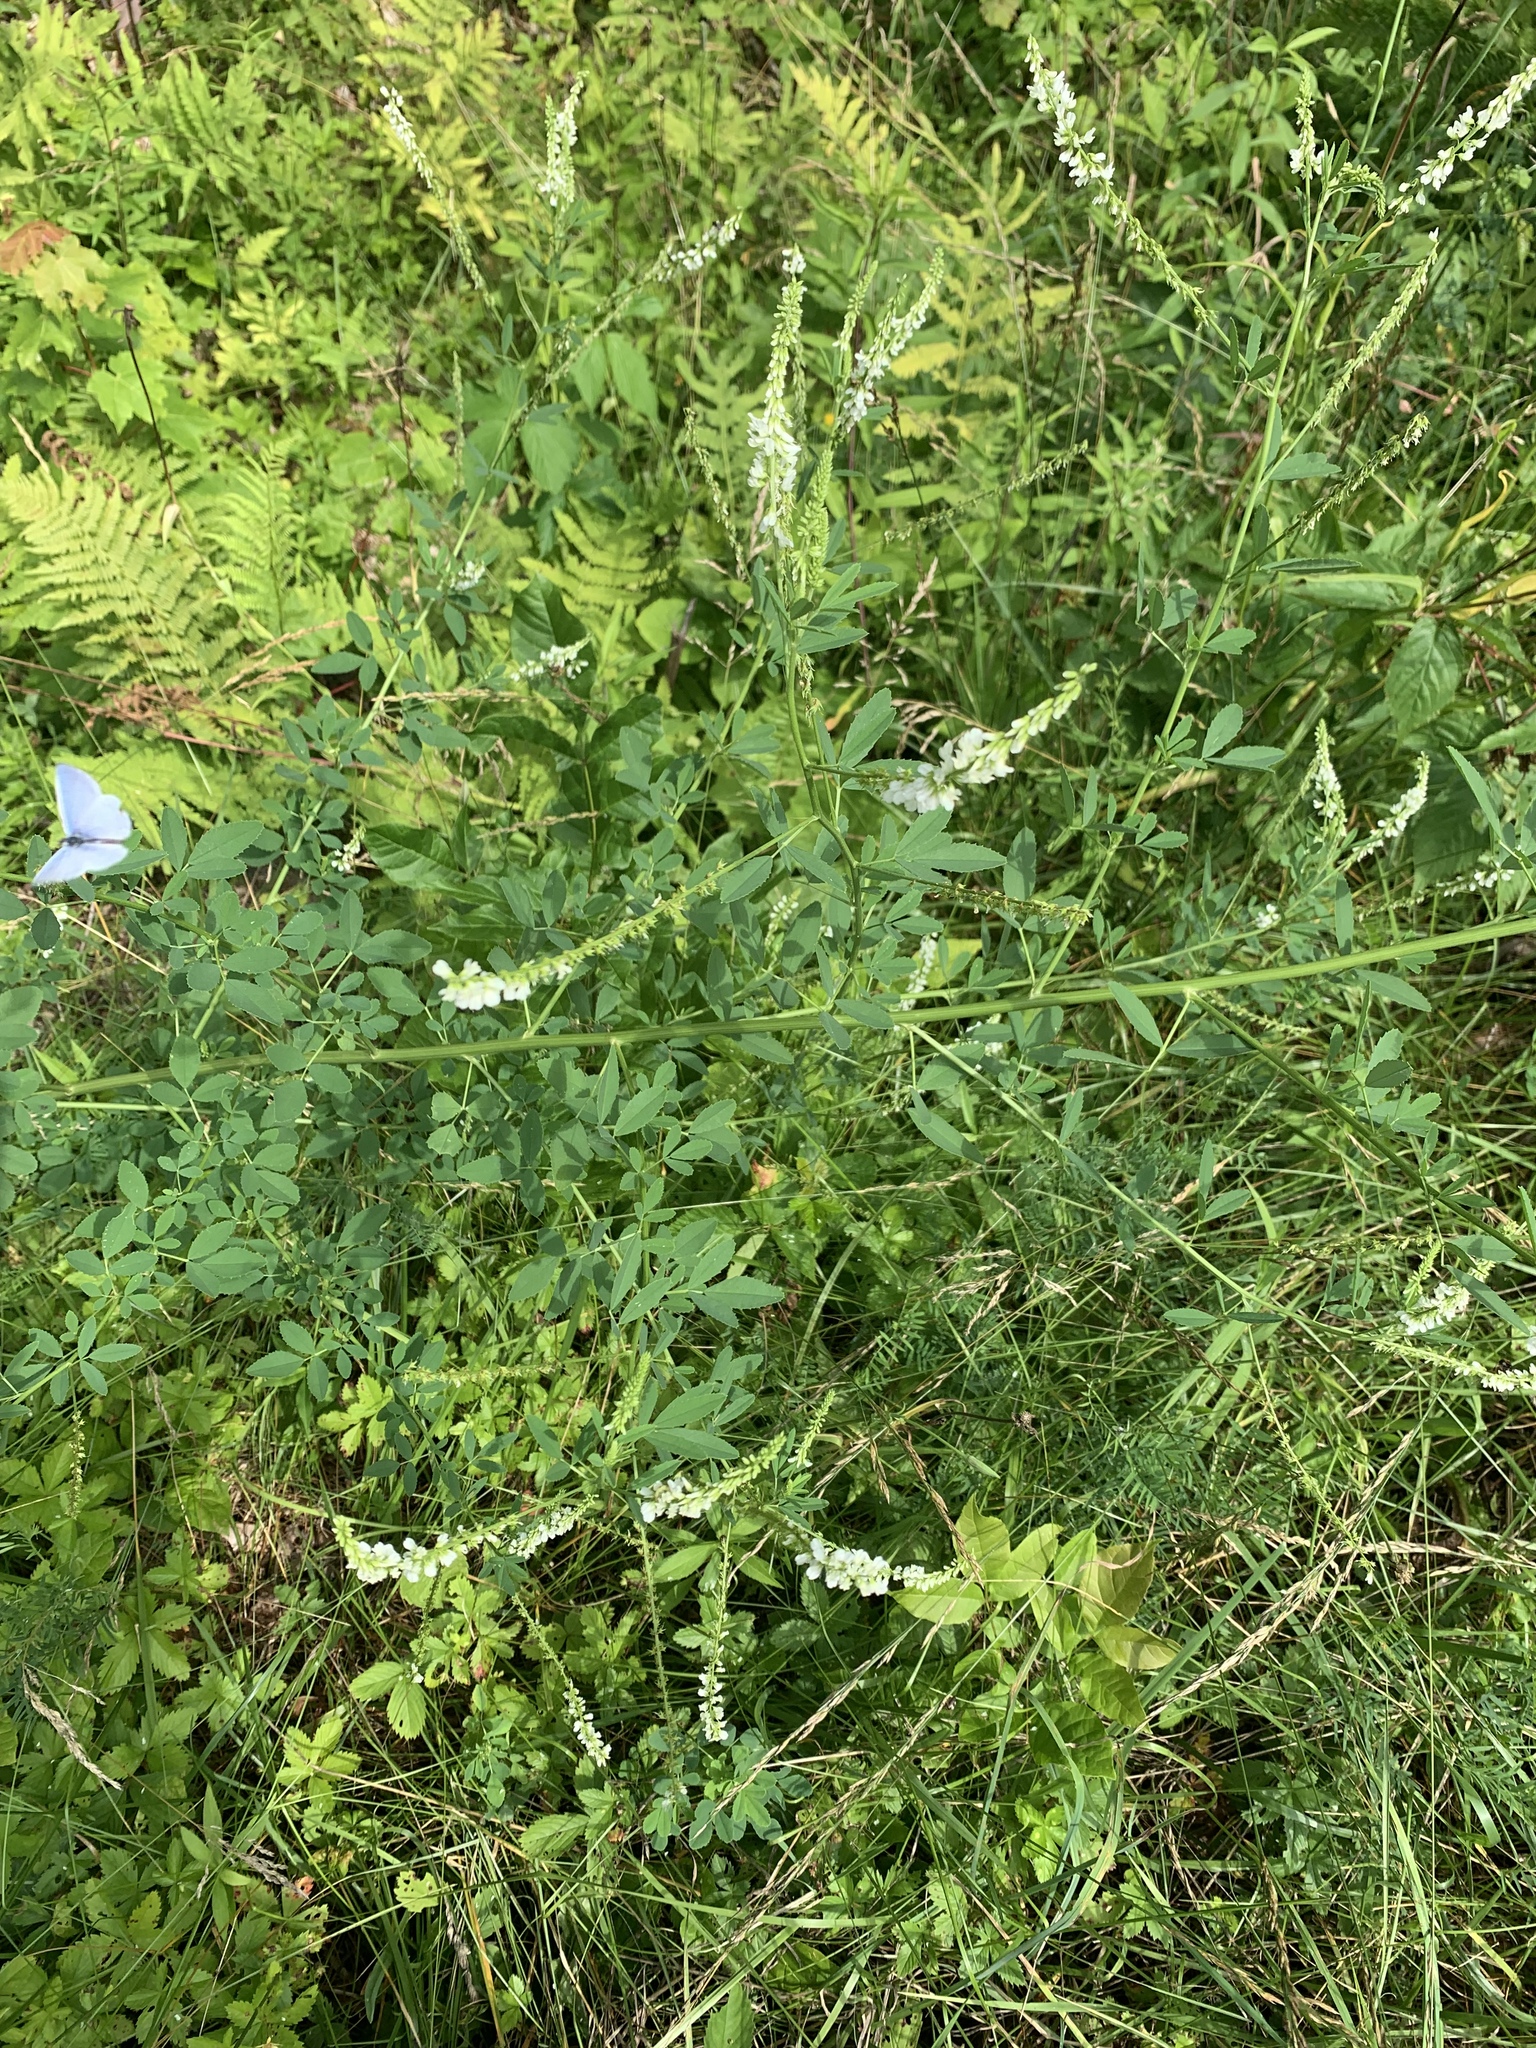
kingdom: Plantae
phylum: Tracheophyta
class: Magnoliopsida
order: Fabales
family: Fabaceae
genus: Melilotus
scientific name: Melilotus albus
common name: White melilot
